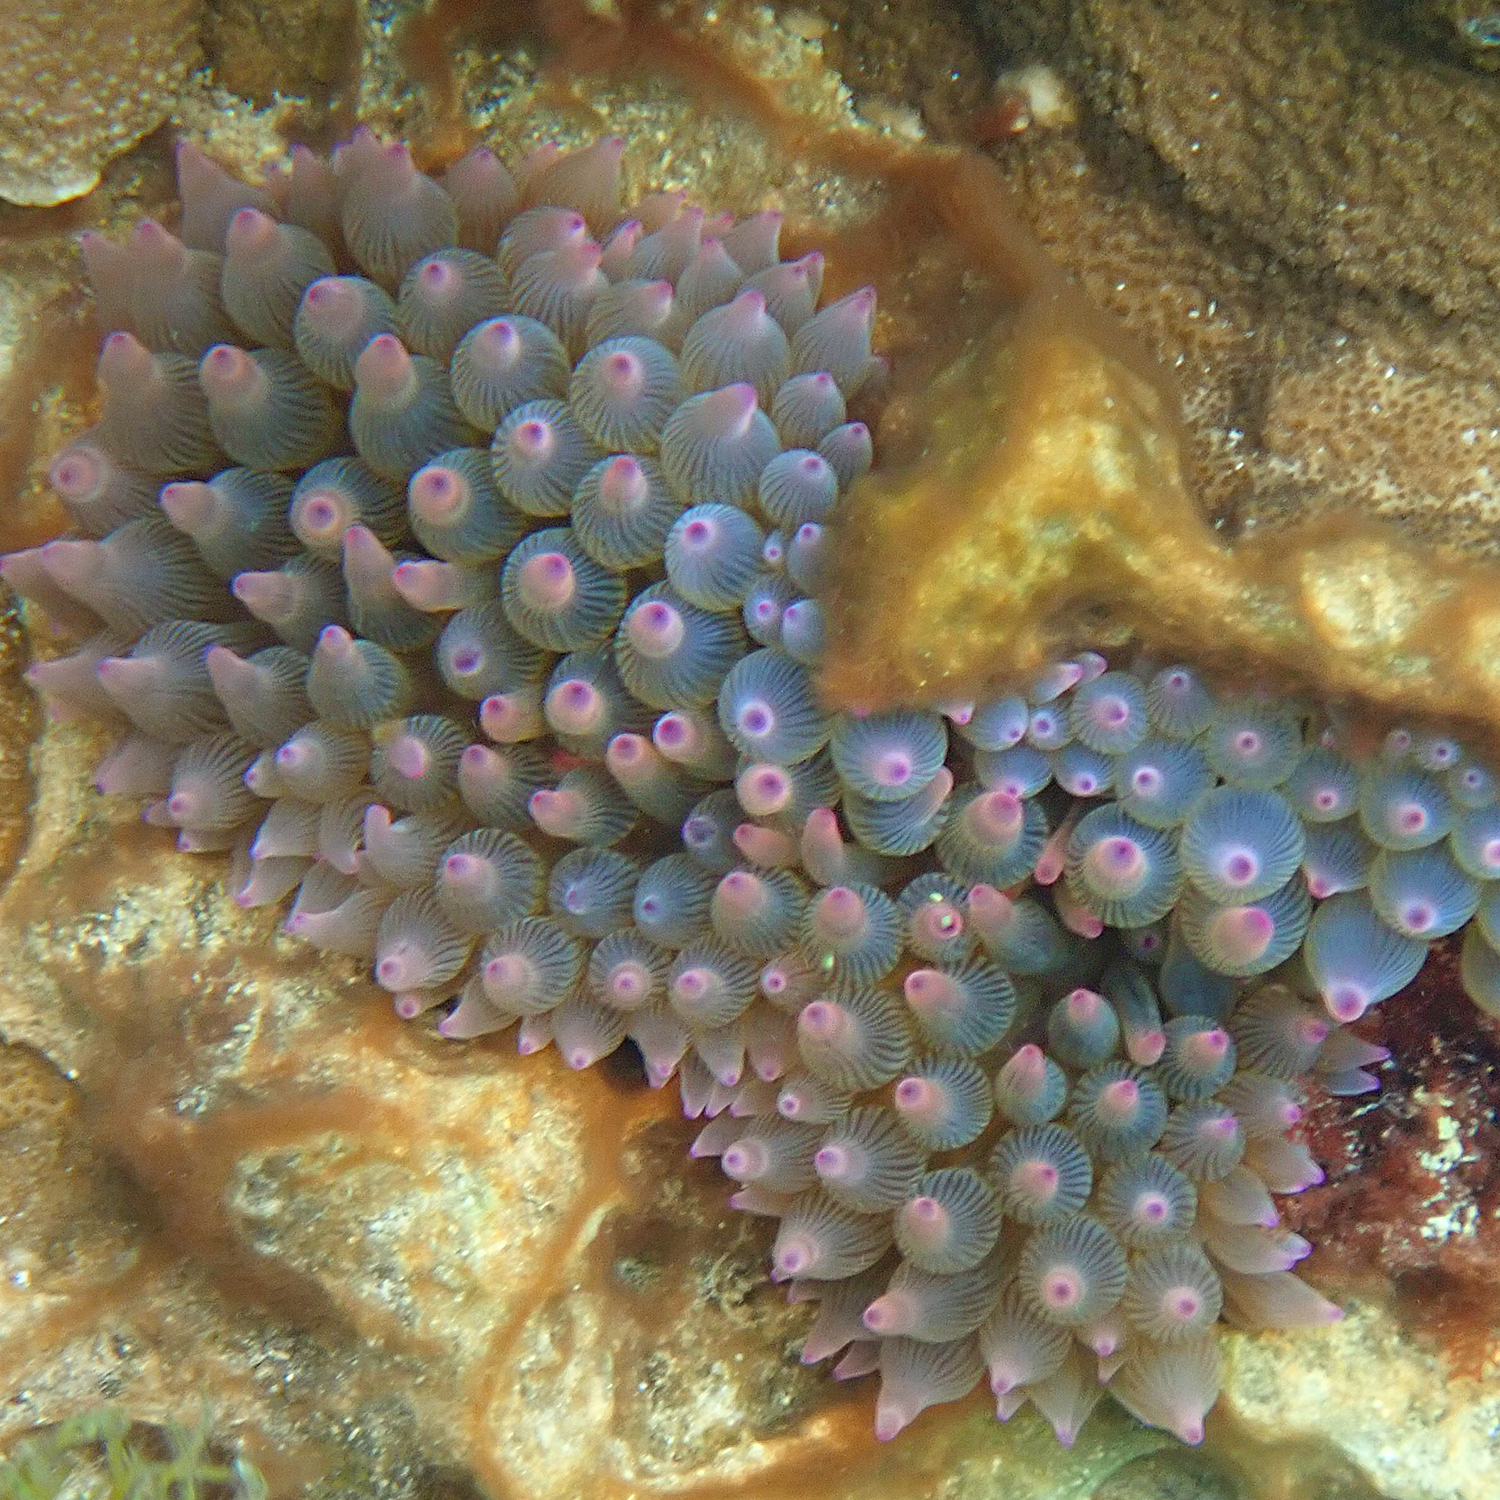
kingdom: Animalia
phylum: Cnidaria
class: Anthozoa
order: Actiniaria
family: Actiniidae
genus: Entacmaea
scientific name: Entacmaea quadricolor
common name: Bulb tentacle sea anemone
